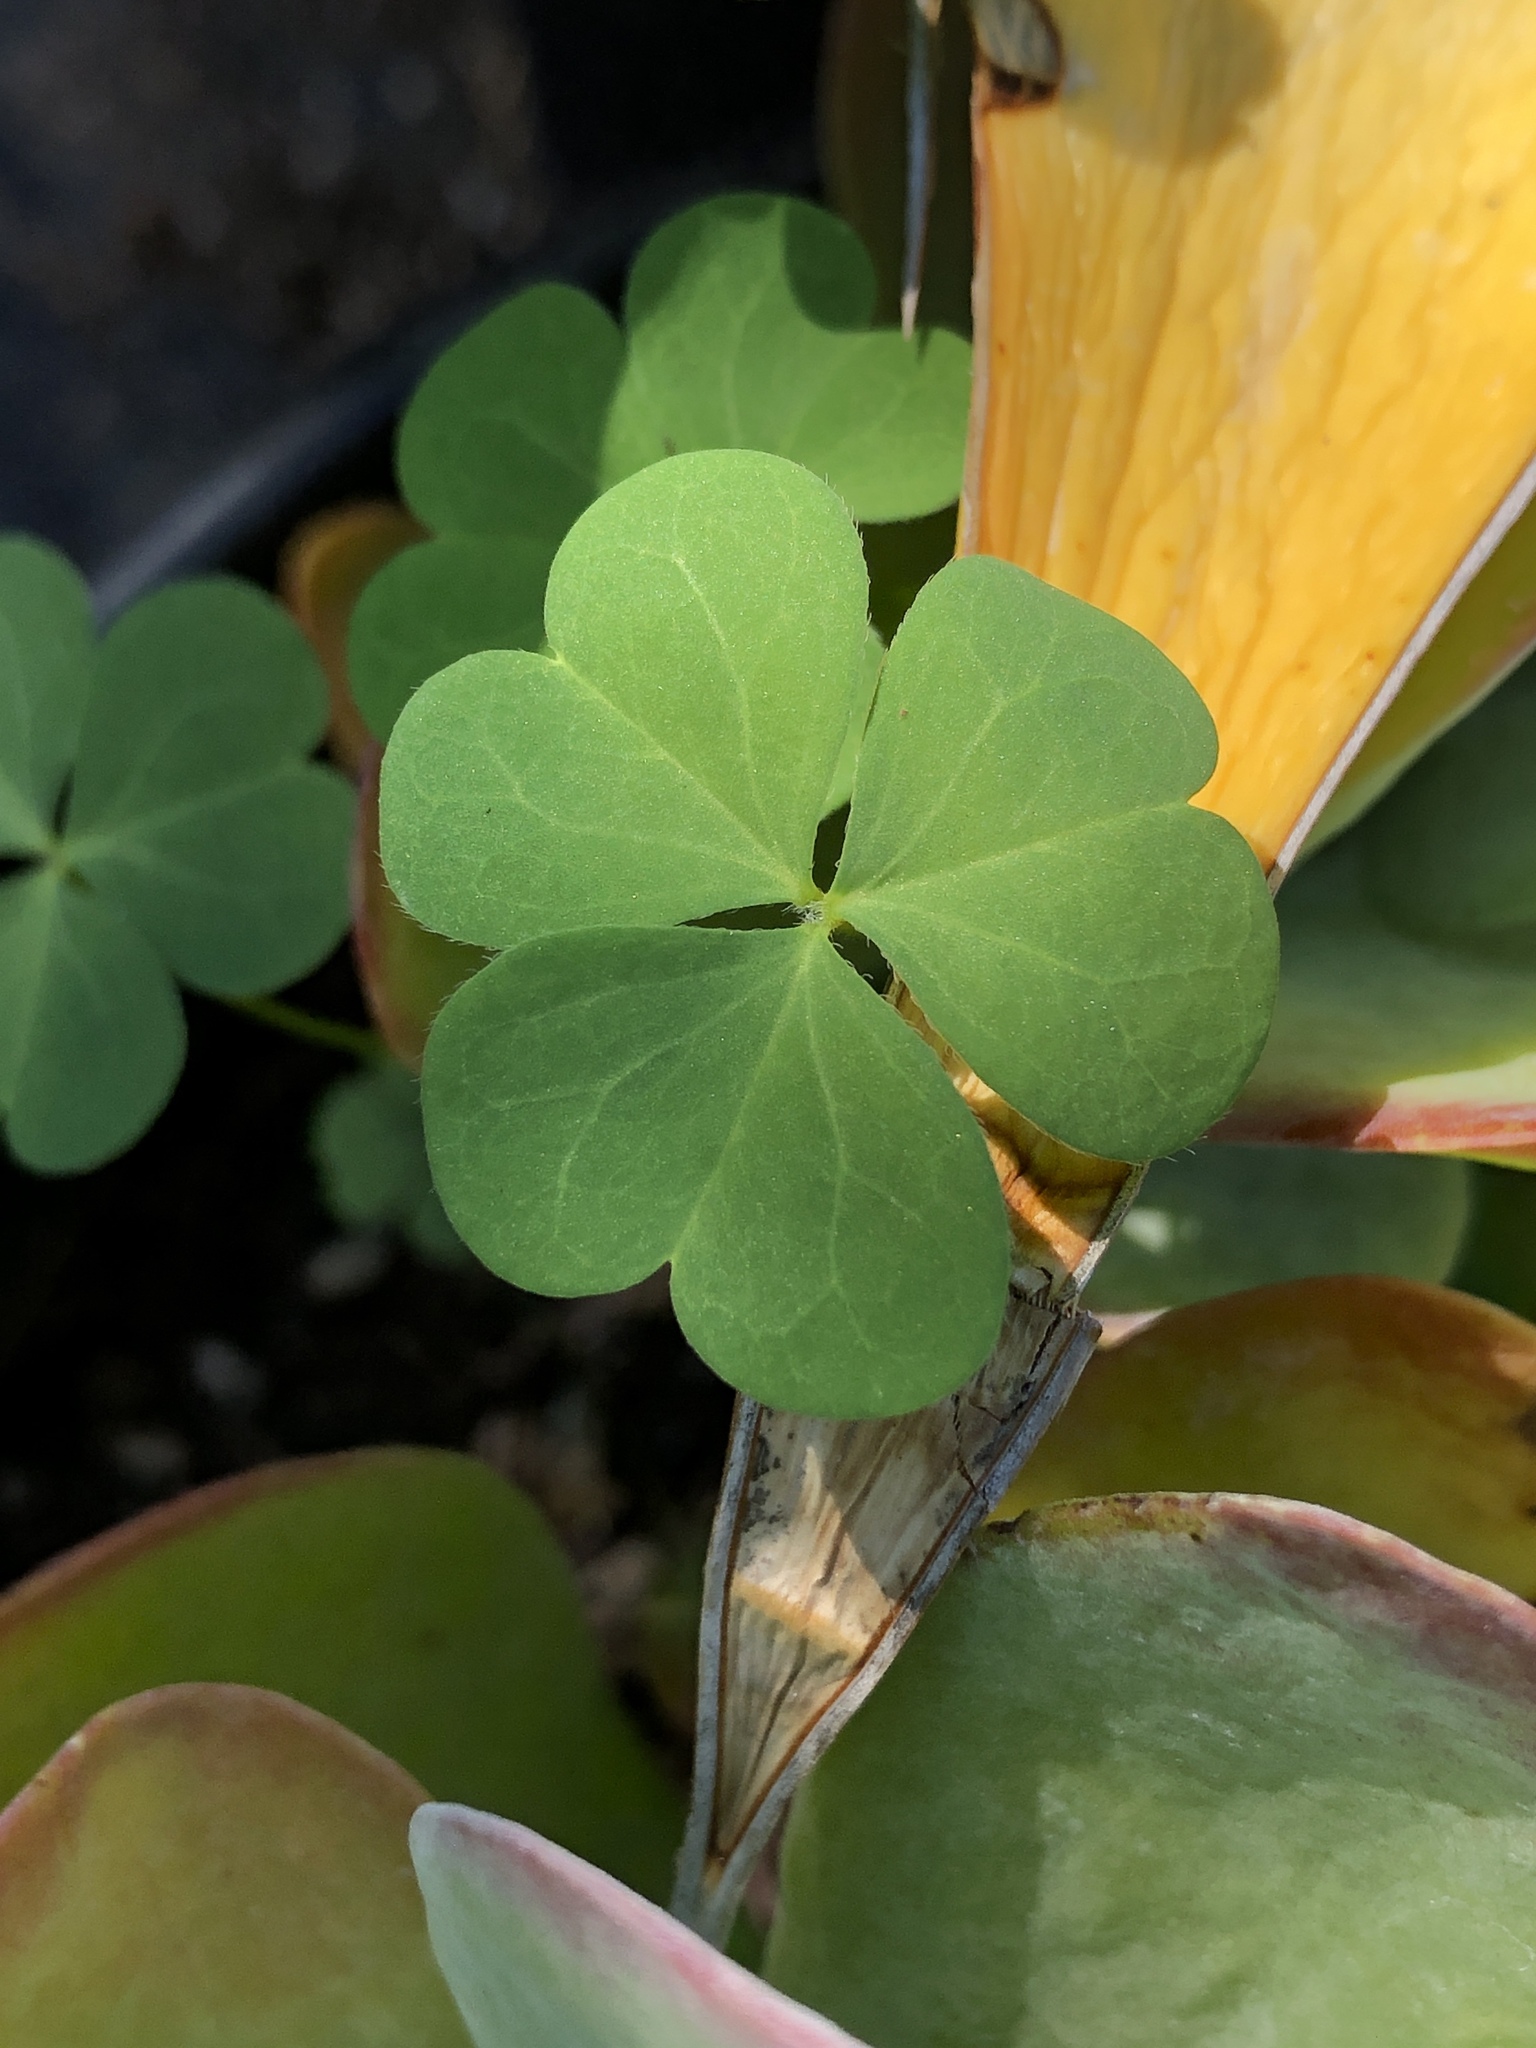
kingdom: Plantae
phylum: Tracheophyta
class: Magnoliopsida
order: Oxalidales
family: Oxalidaceae
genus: Oxalis
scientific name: Oxalis
